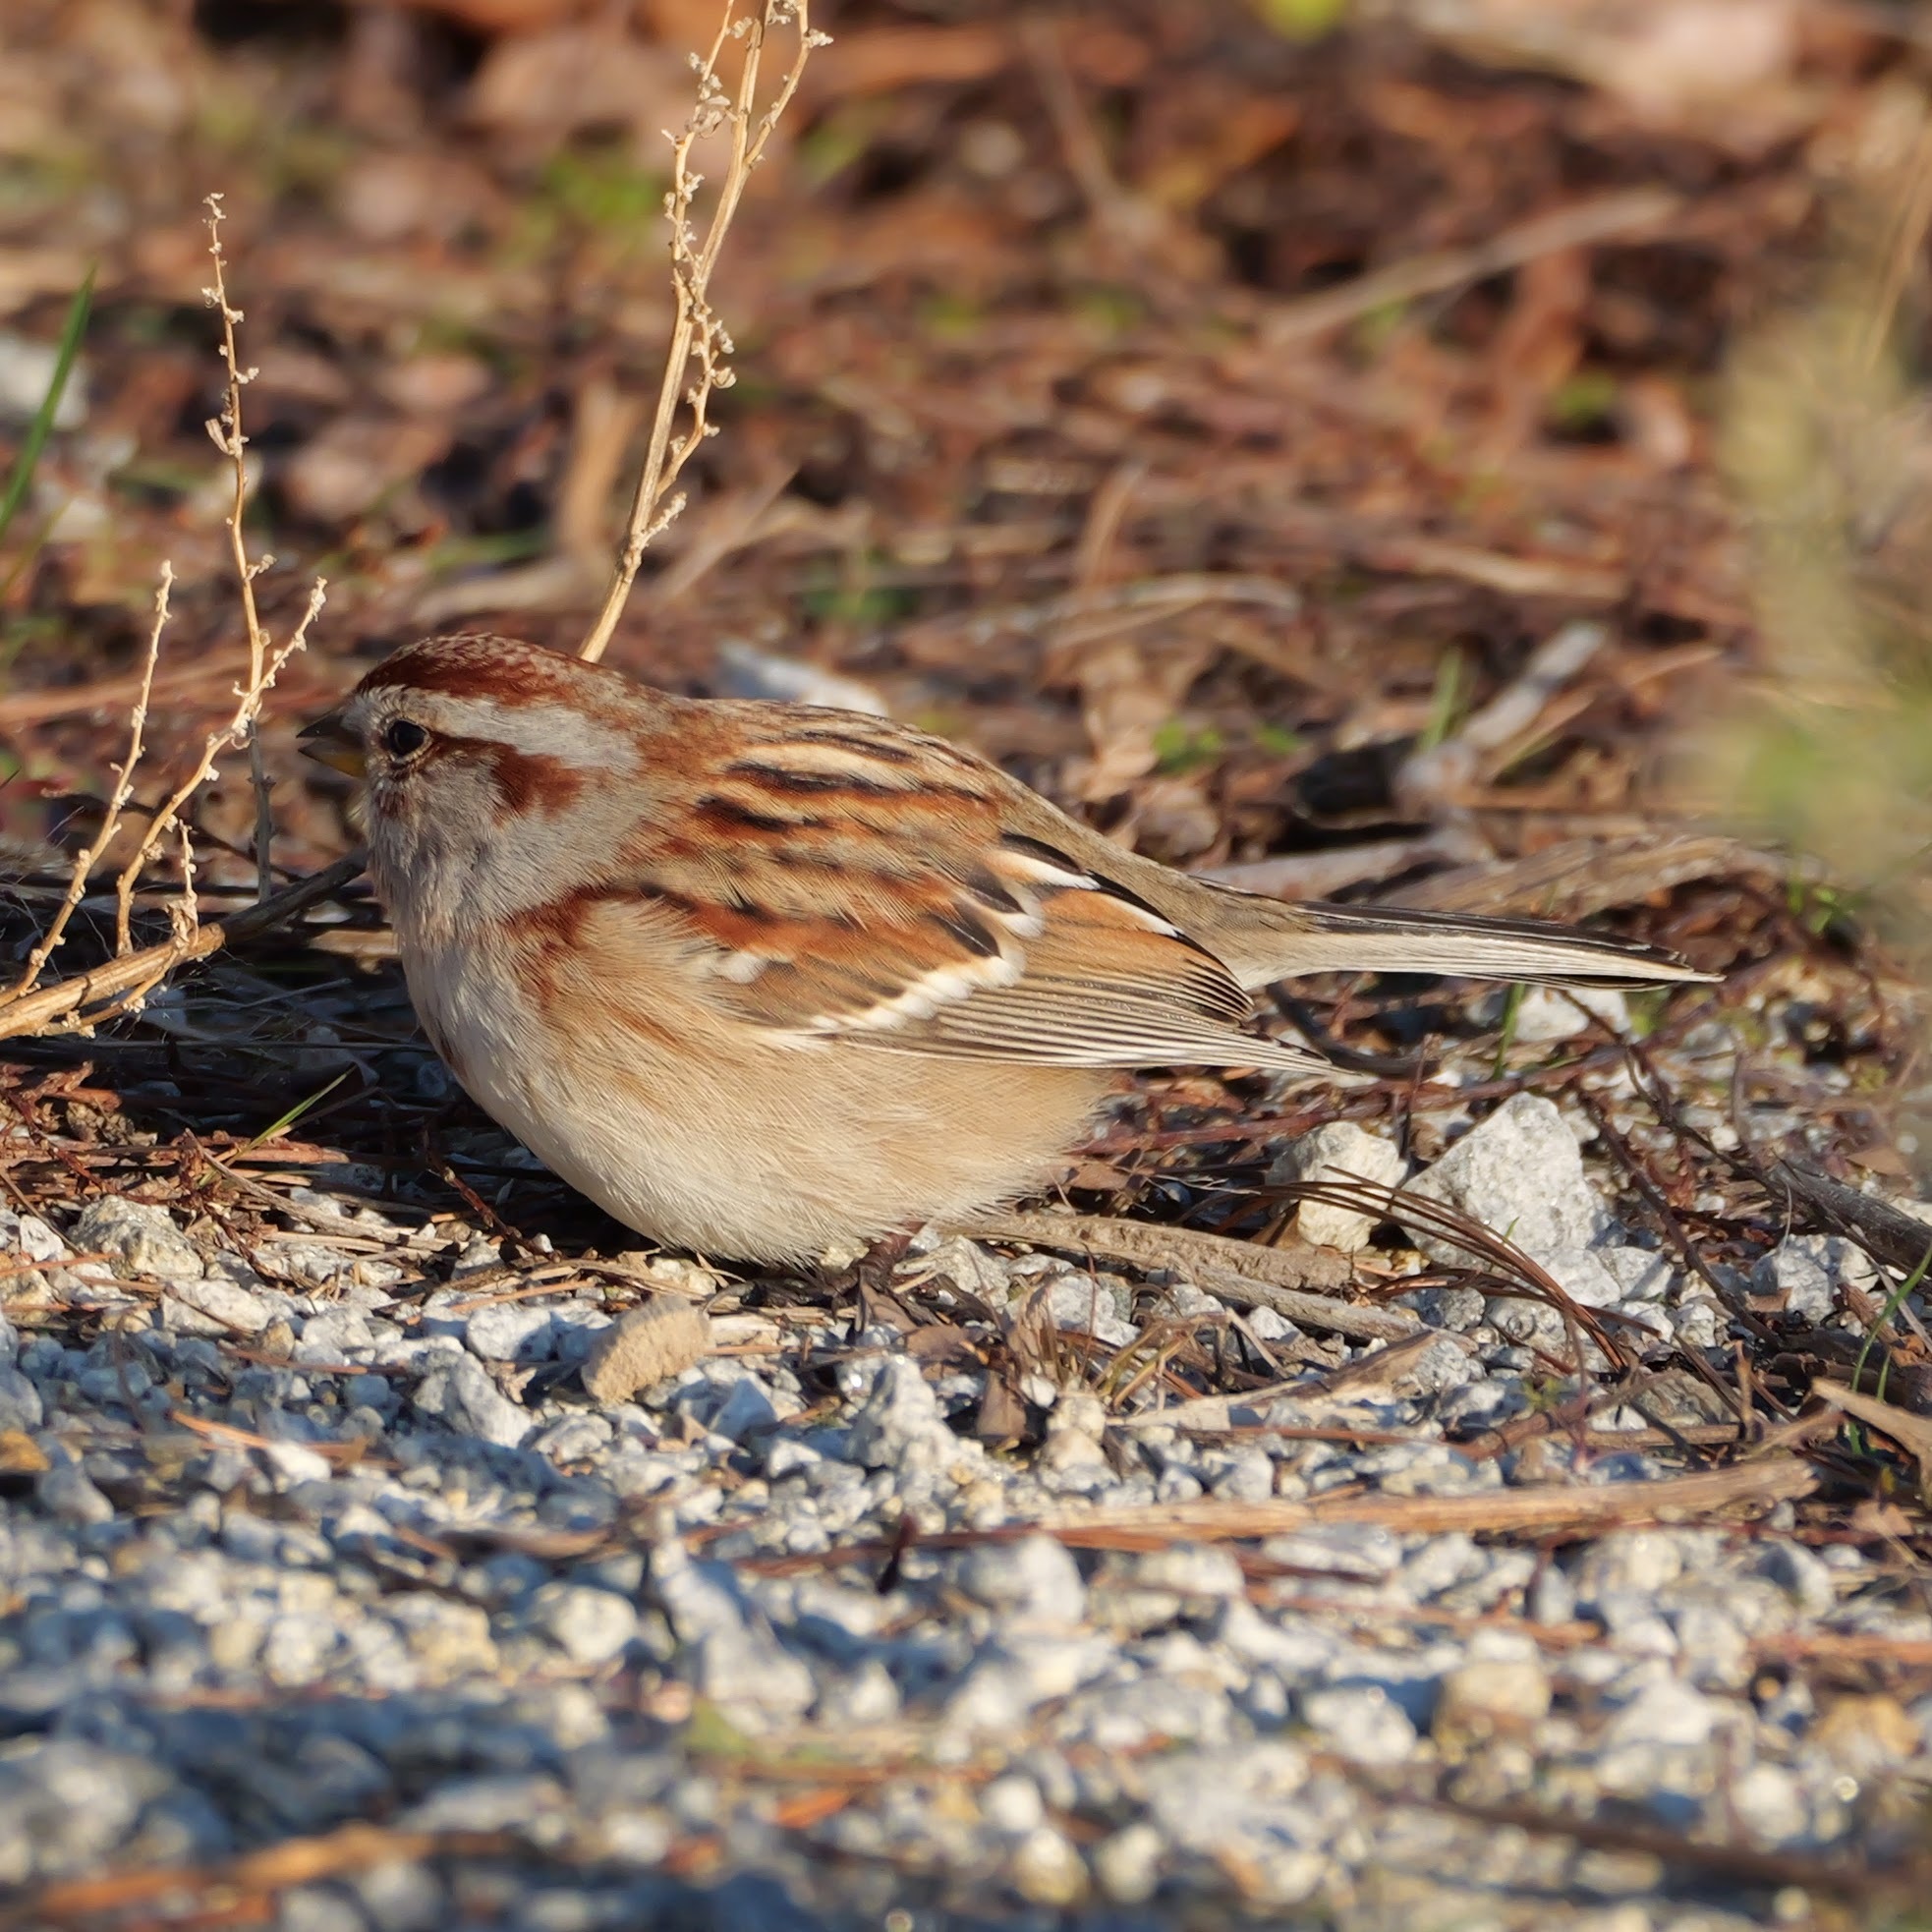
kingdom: Animalia
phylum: Chordata
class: Aves
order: Passeriformes
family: Passerellidae
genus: Spizelloides
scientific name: Spizelloides arborea
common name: American tree sparrow
